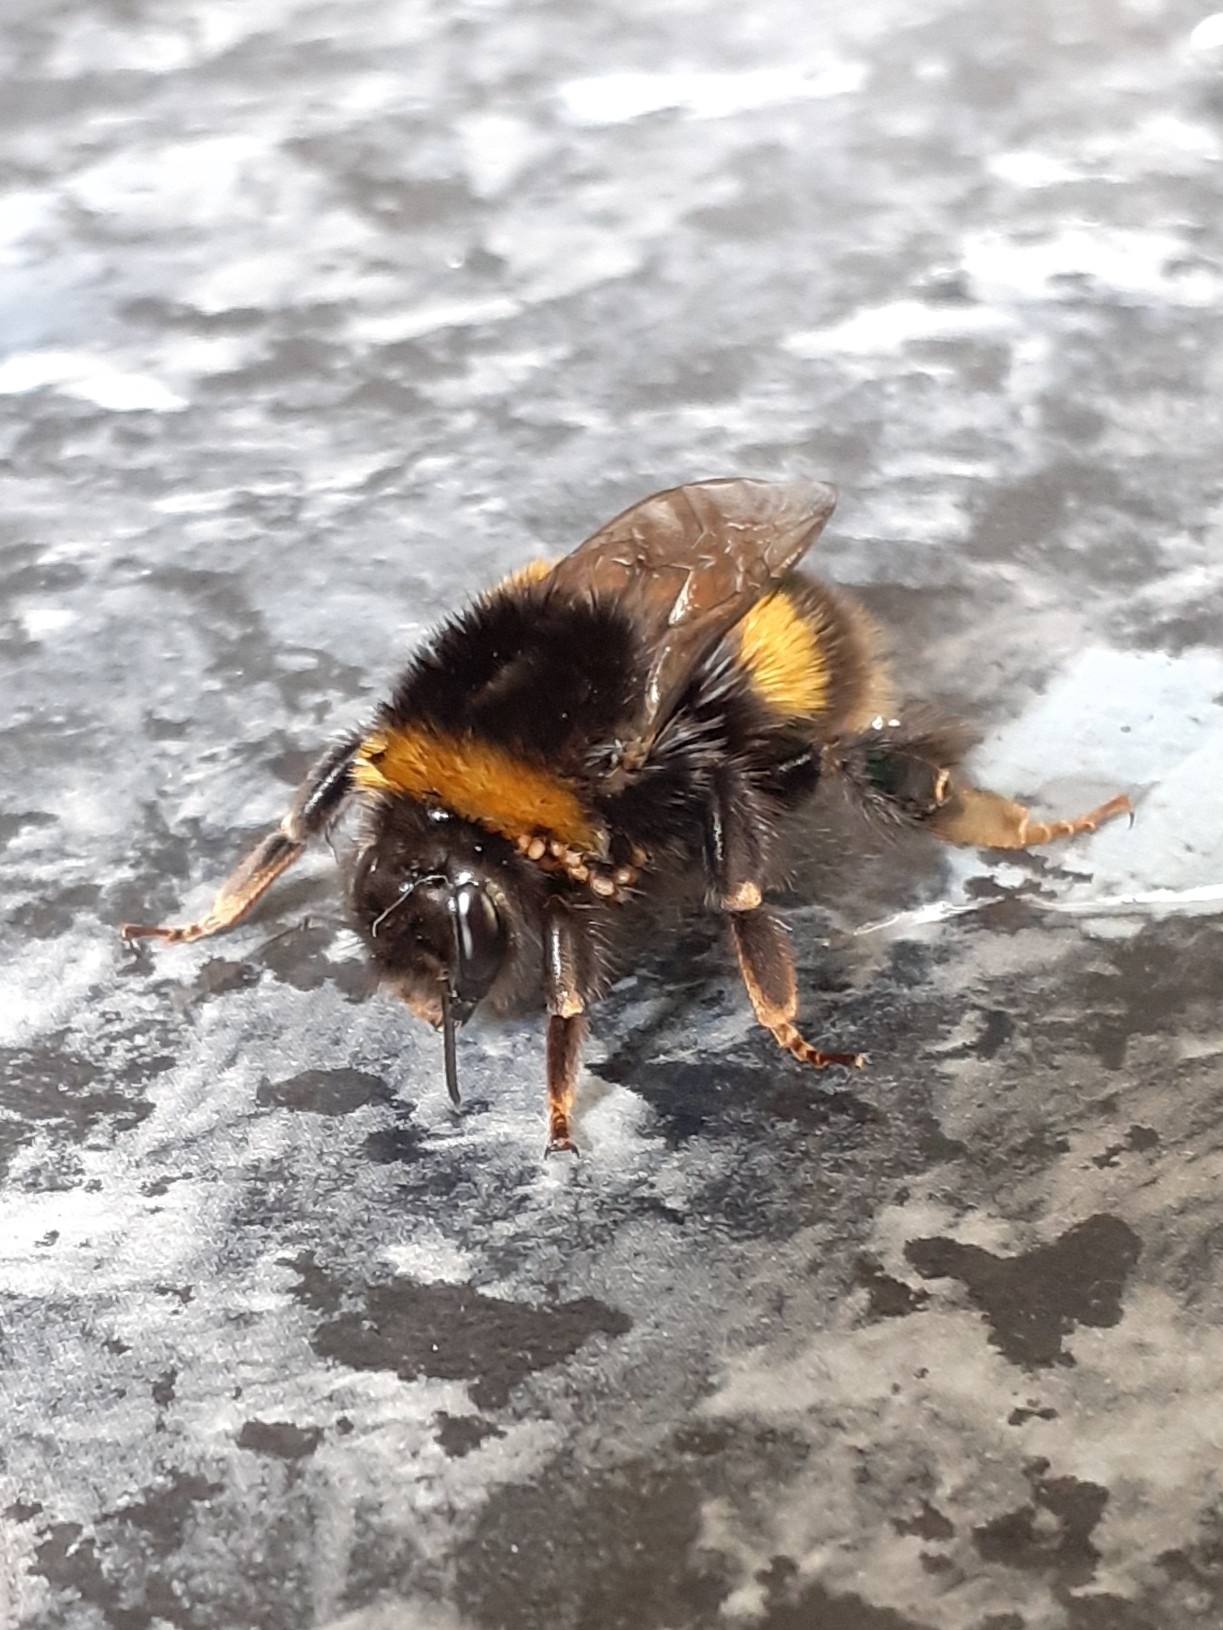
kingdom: Animalia
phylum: Arthropoda
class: Insecta
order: Hymenoptera
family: Apidae
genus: Bombus
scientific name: Bombus terrestris
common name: Buff-tailed bumblebee
